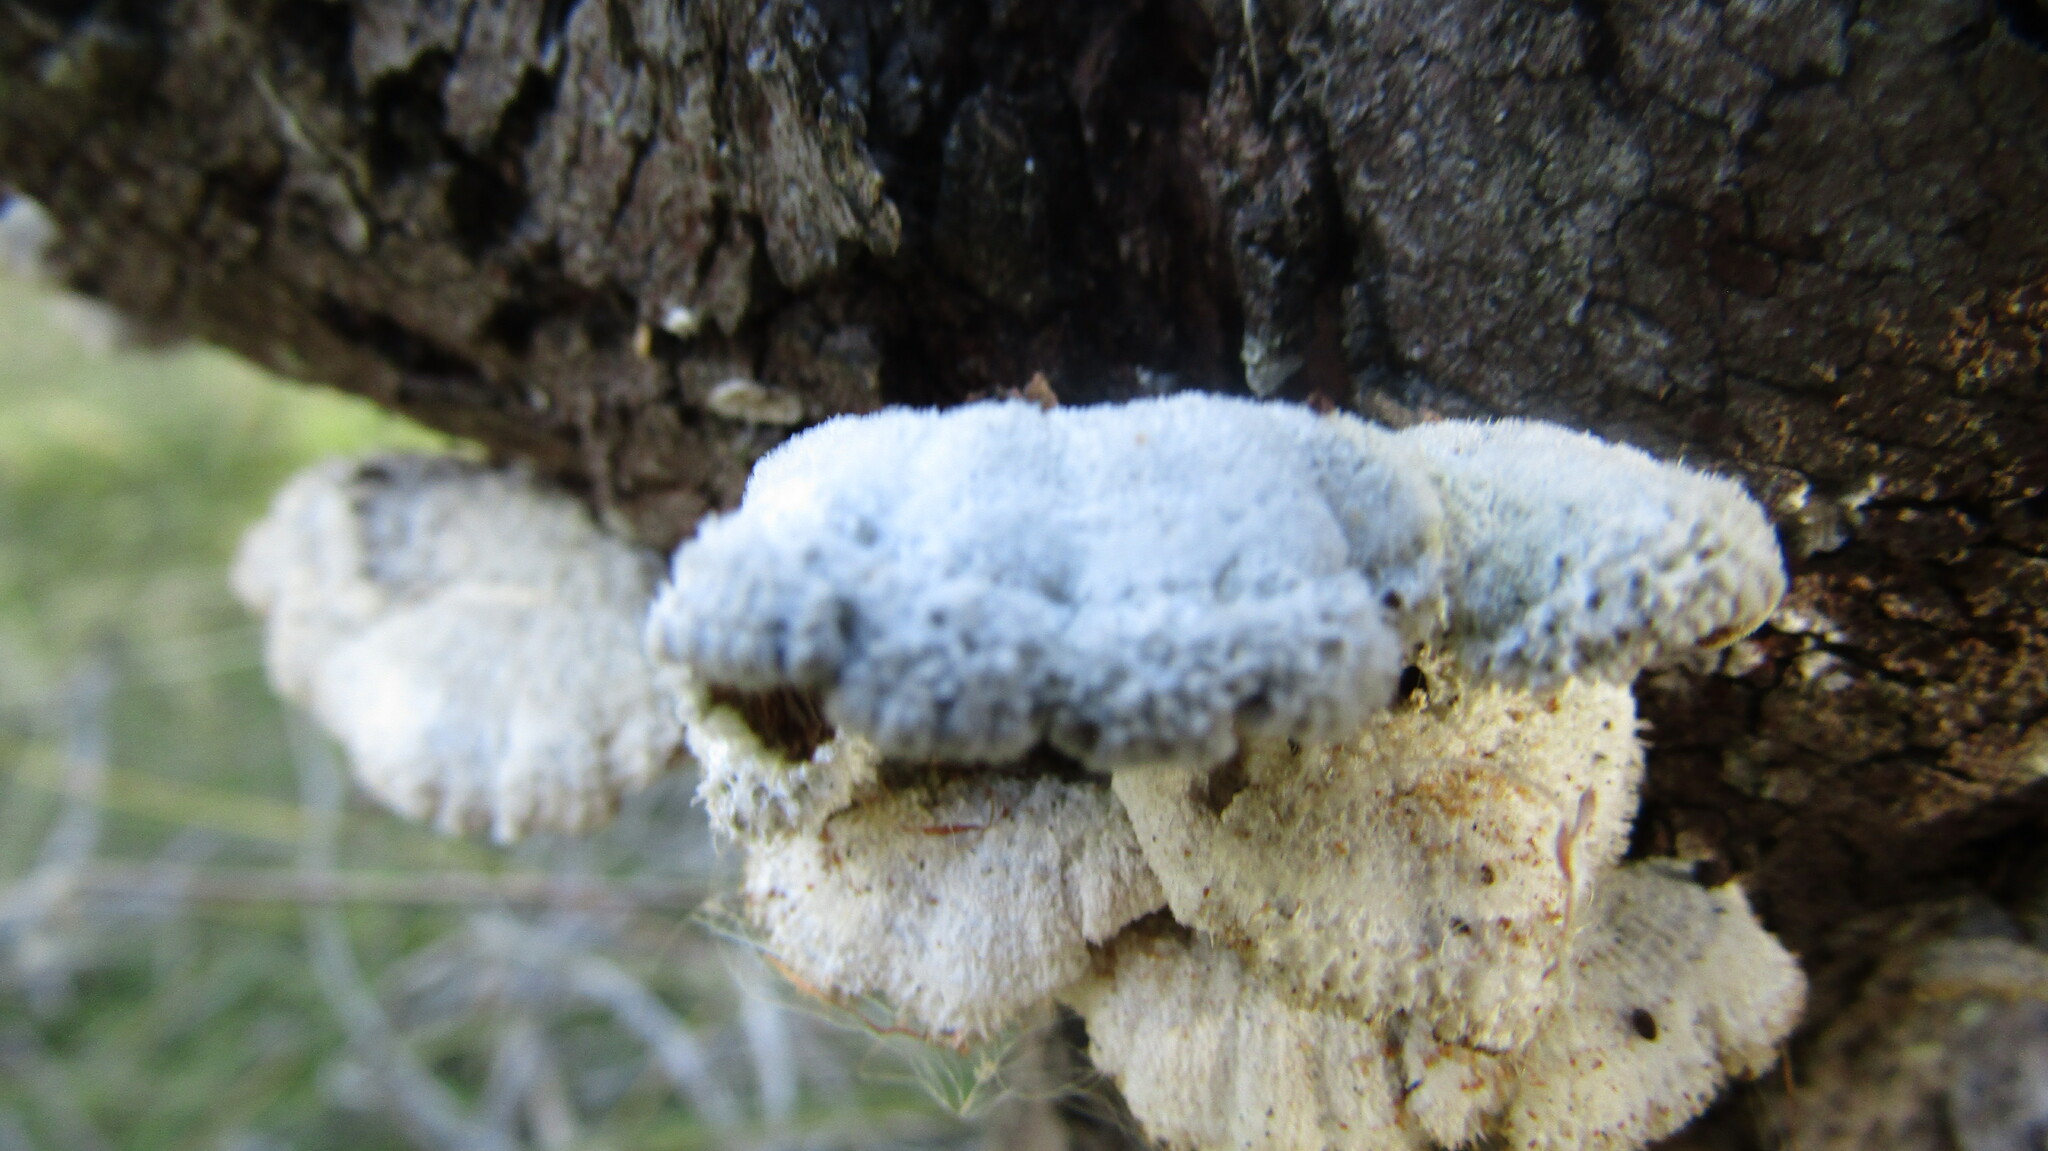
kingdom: Fungi
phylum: Basidiomycota
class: Agaricomycetes
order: Agaricales
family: Schizophyllaceae
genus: Schizophyllum
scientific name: Schizophyllum commune
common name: Common porecrust
